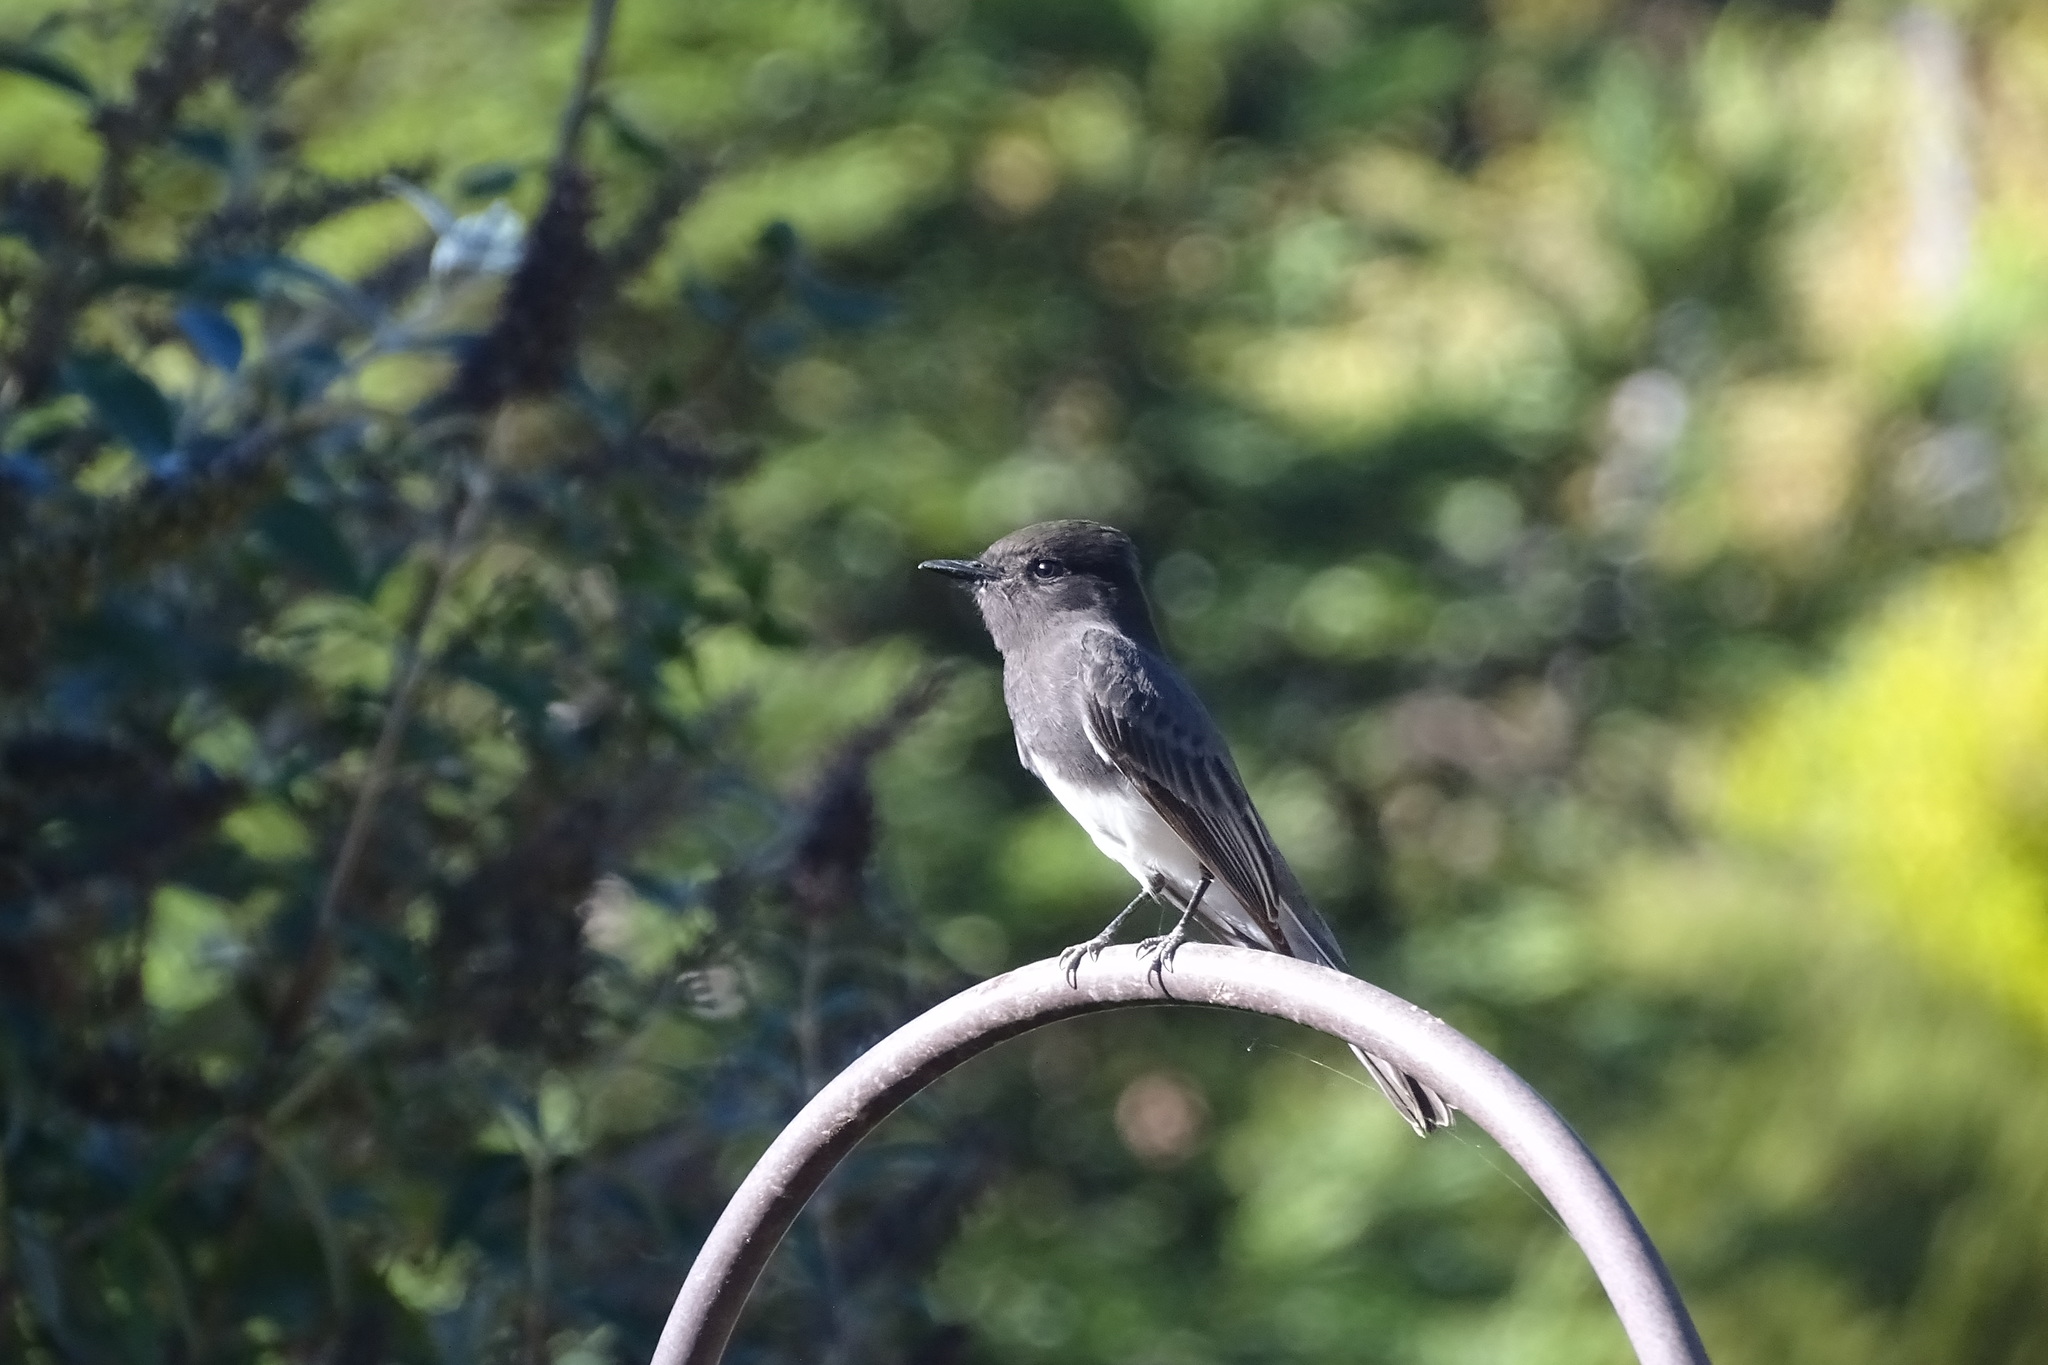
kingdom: Animalia
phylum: Chordata
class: Aves
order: Passeriformes
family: Tyrannidae
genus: Sayornis
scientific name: Sayornis nigricans
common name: Black phoebe
